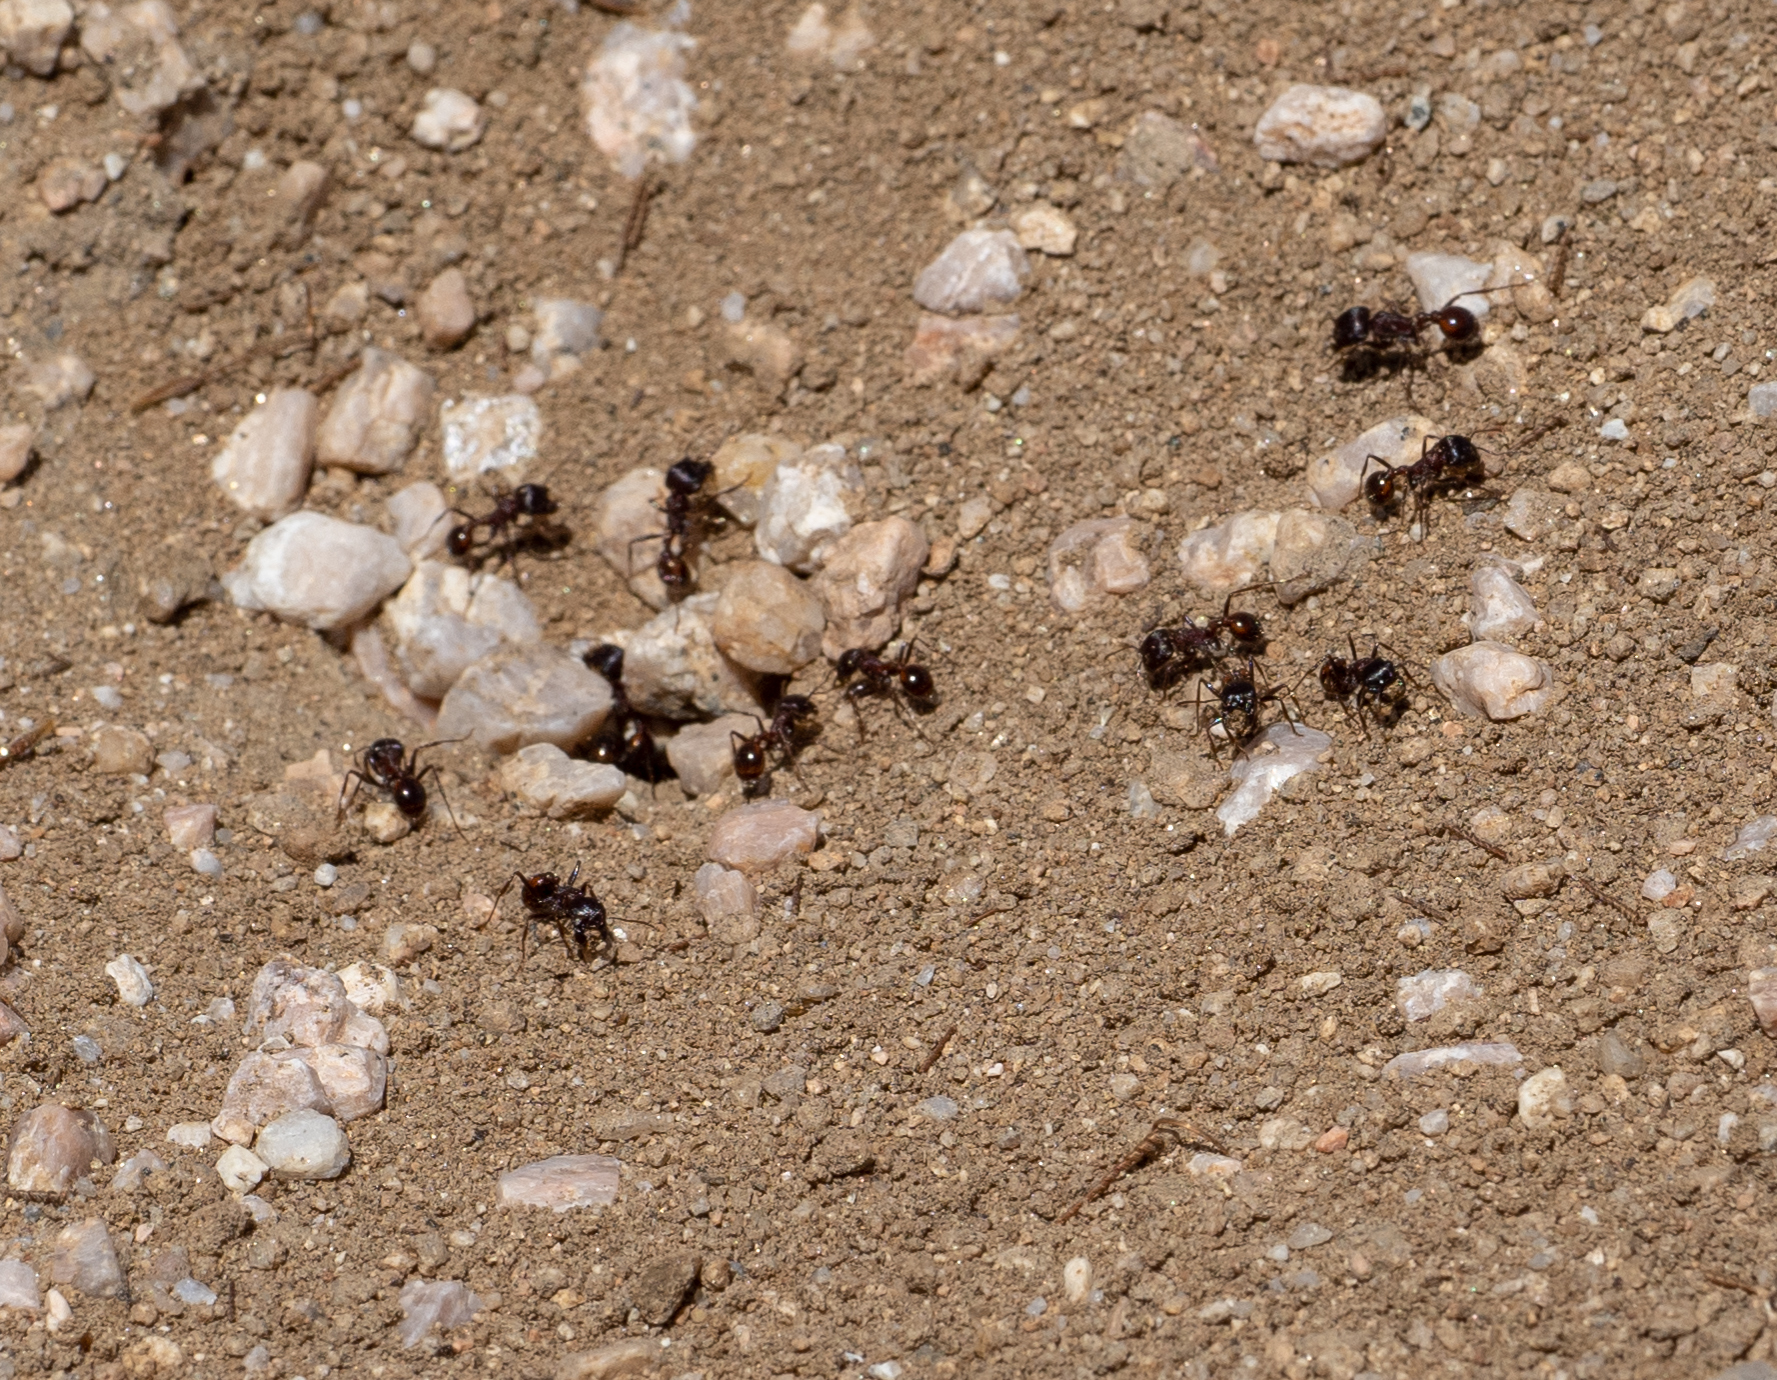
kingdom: Animalia
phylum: Arthropoda
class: Insecta
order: Hymenoptera
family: Formicidae
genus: Pogonomyrmex
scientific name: Pogonomyrmex rugosus
